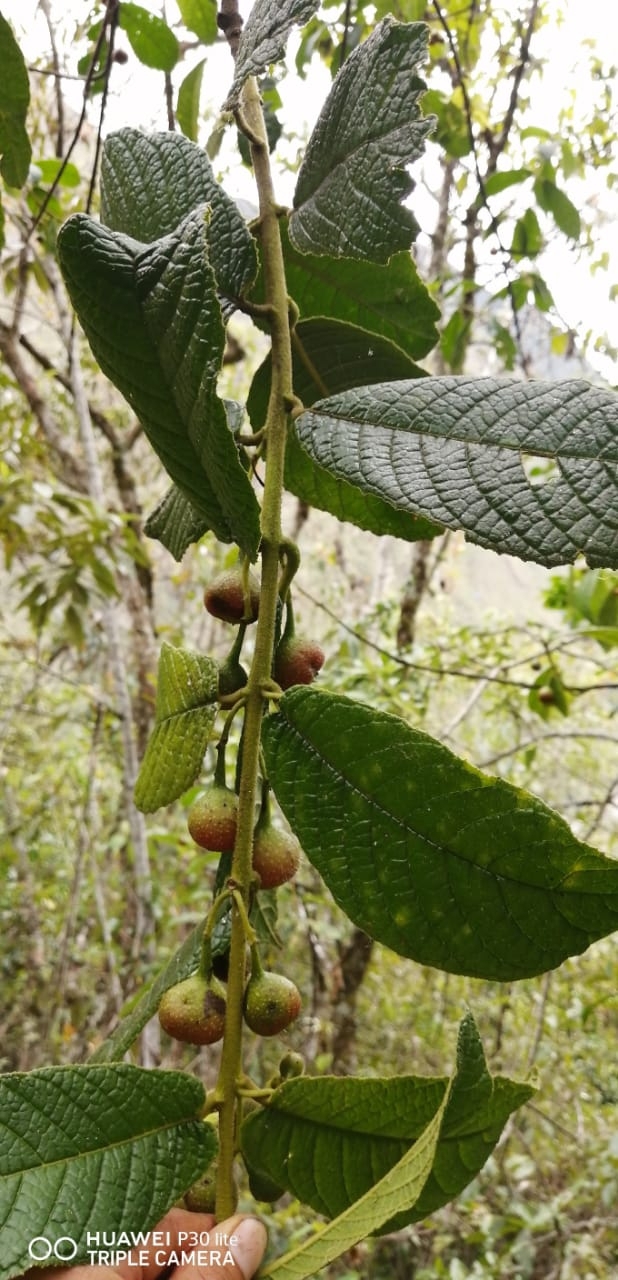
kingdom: Plantae
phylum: Tracheophyta
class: Magnoliopsida
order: Laurales
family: Siparunaceae
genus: Siparuna
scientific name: Siparuna aspera
